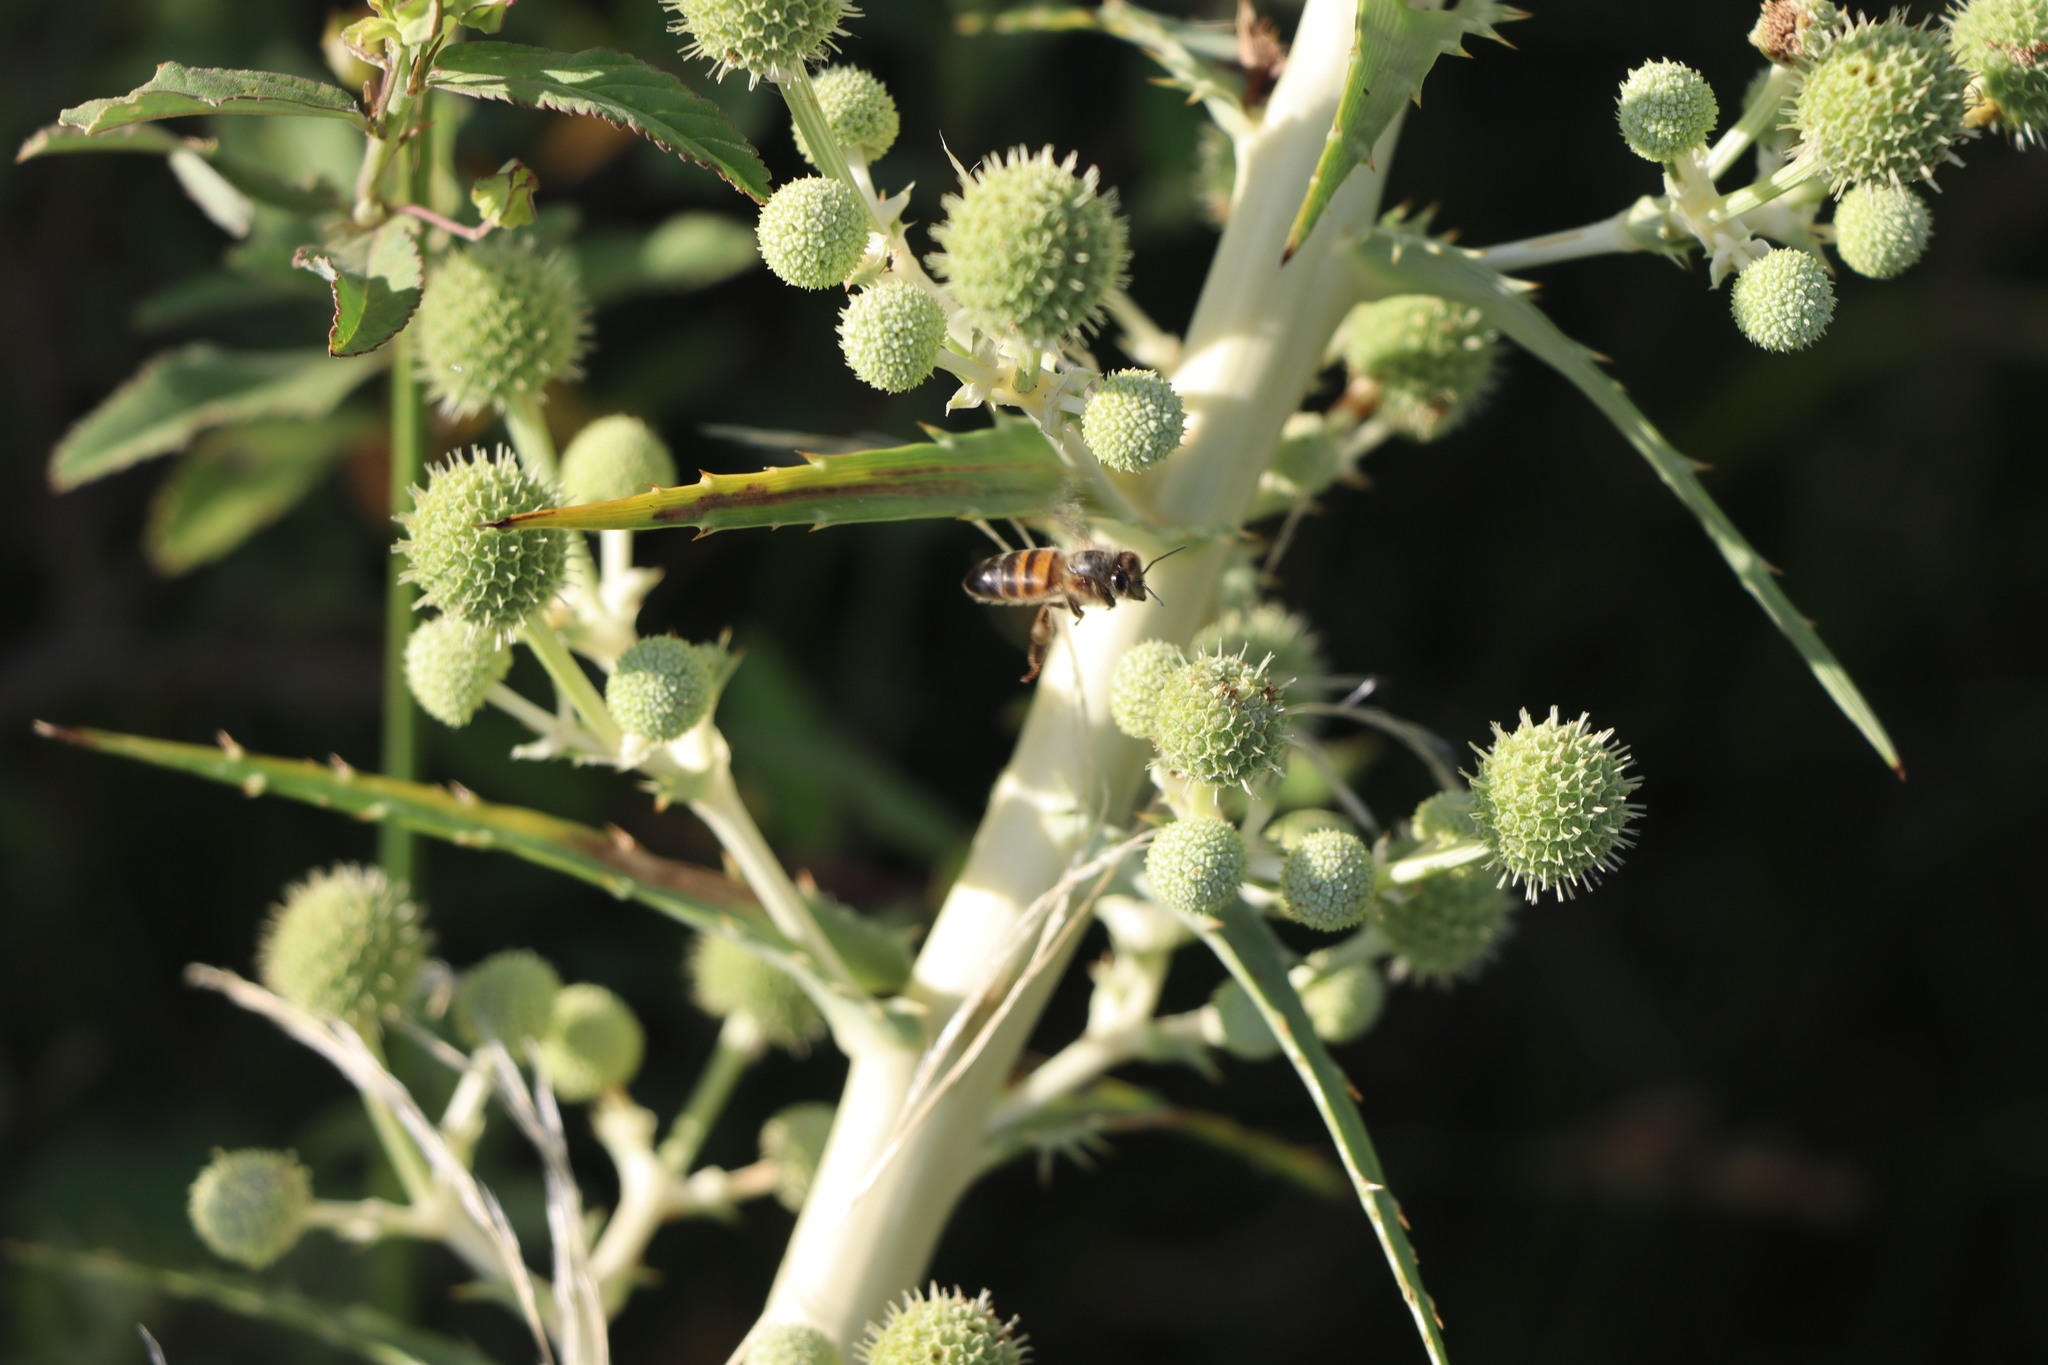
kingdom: Animalia
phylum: Arthropoda
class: Insecta
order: Hymenoptera
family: Apidae
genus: Apis
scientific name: Apis mellifera
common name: Honey bee
